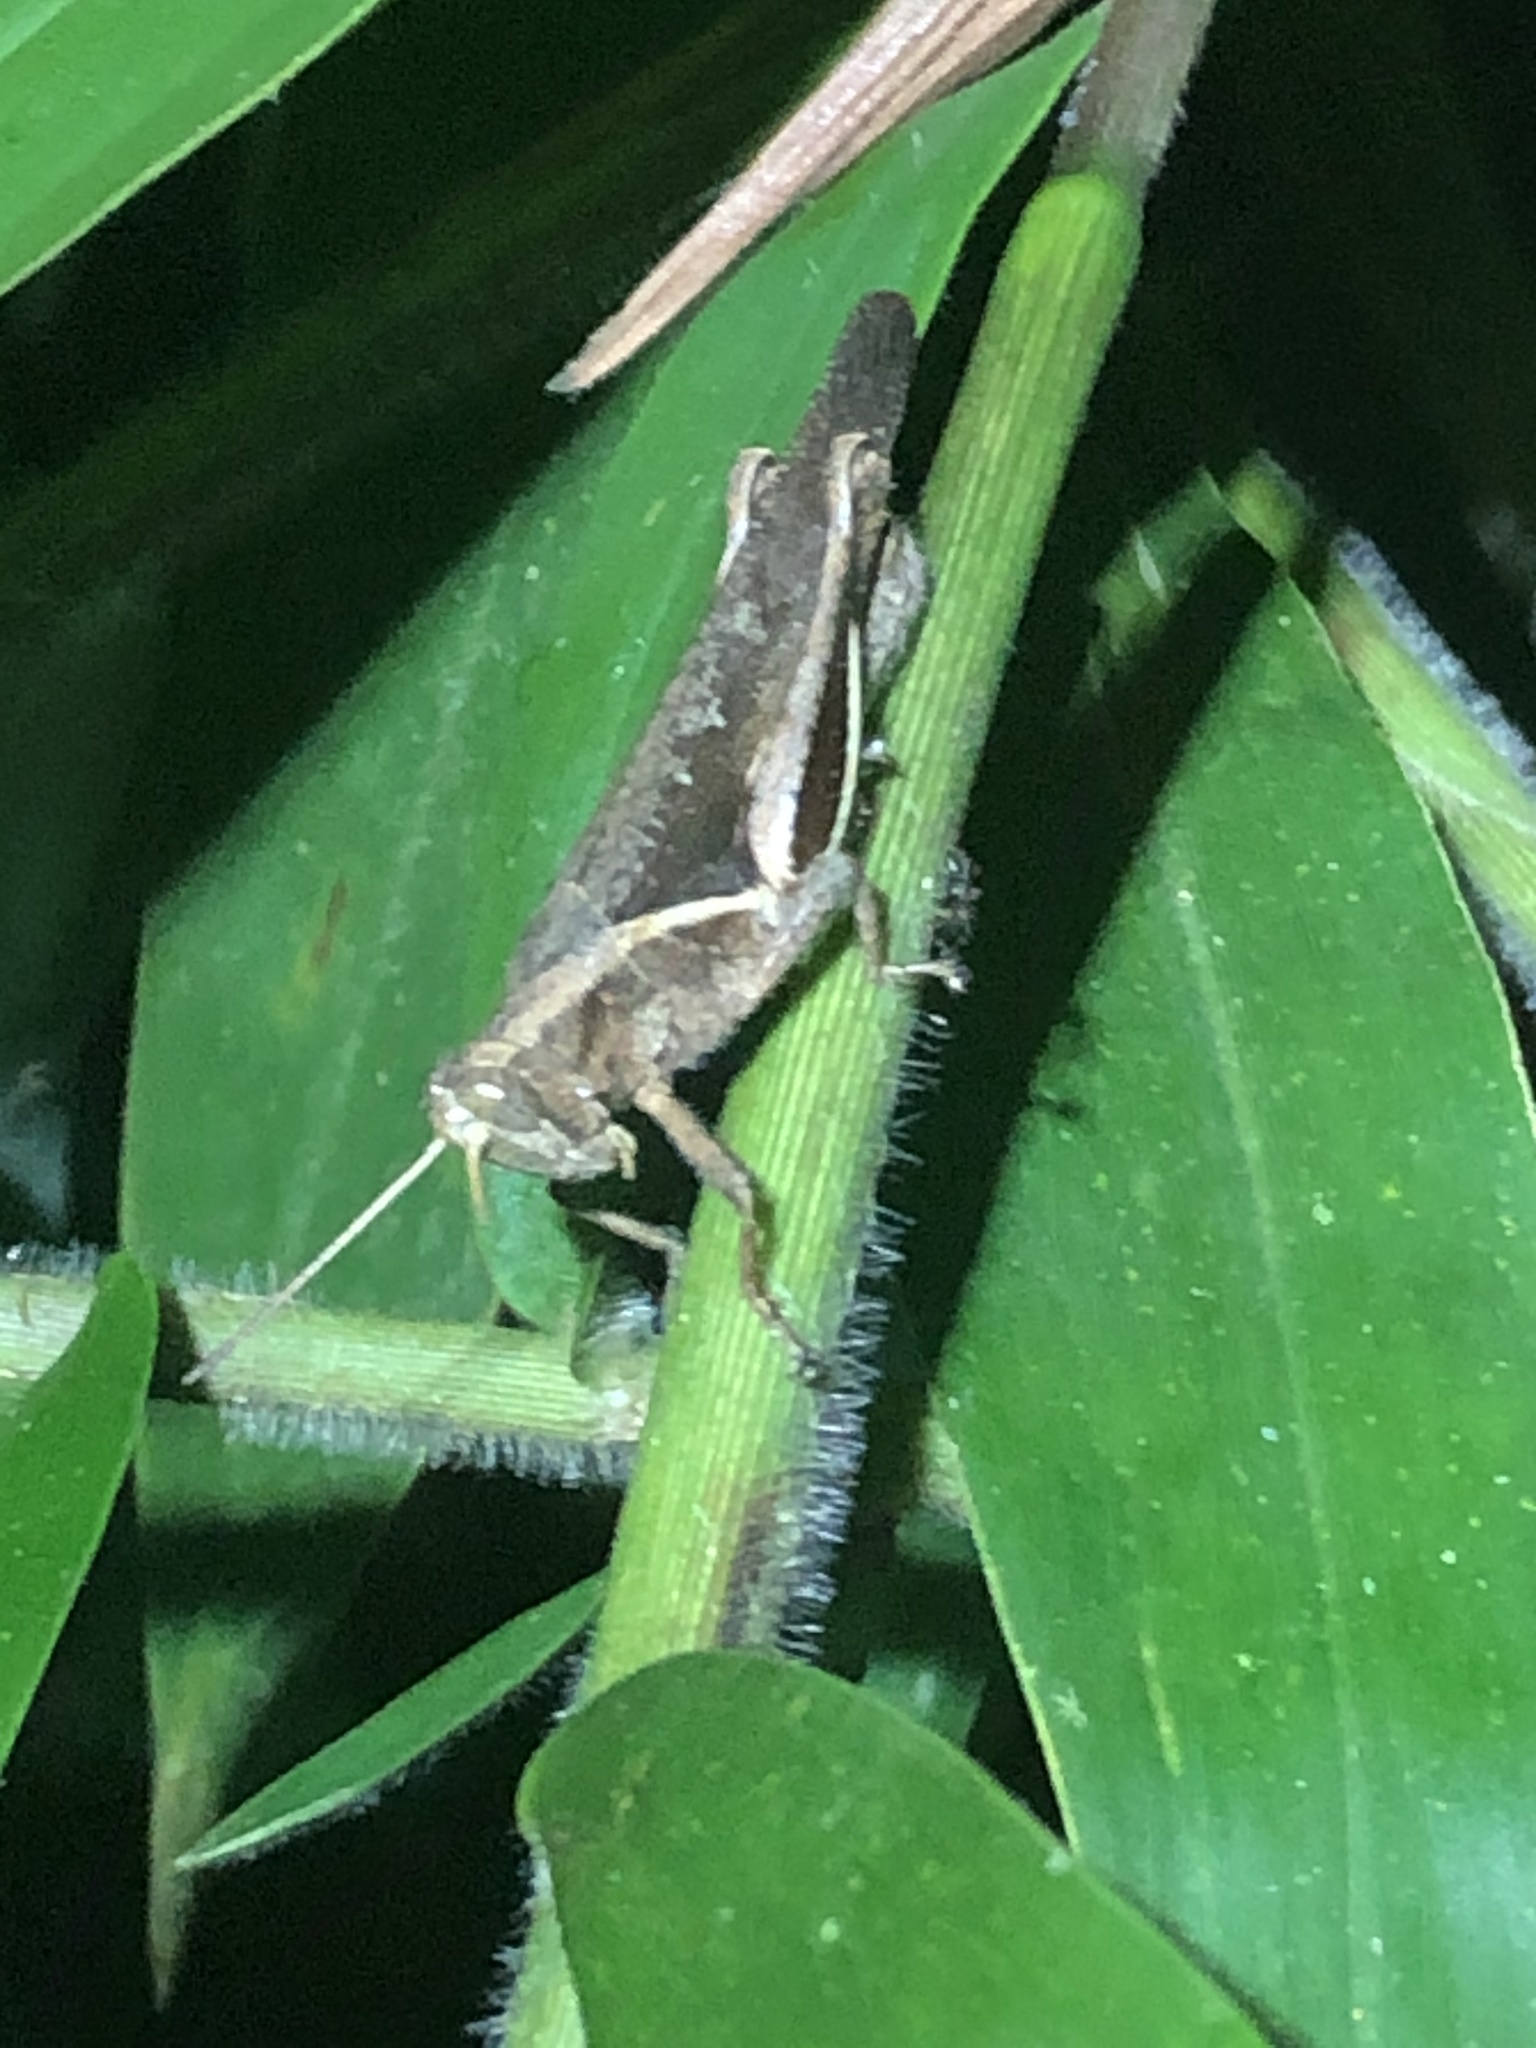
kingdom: Animalia
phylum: Arthropoda
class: Insecta
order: Orthoptera
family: Acrididae
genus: Abracris
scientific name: Abracris flavolineata
